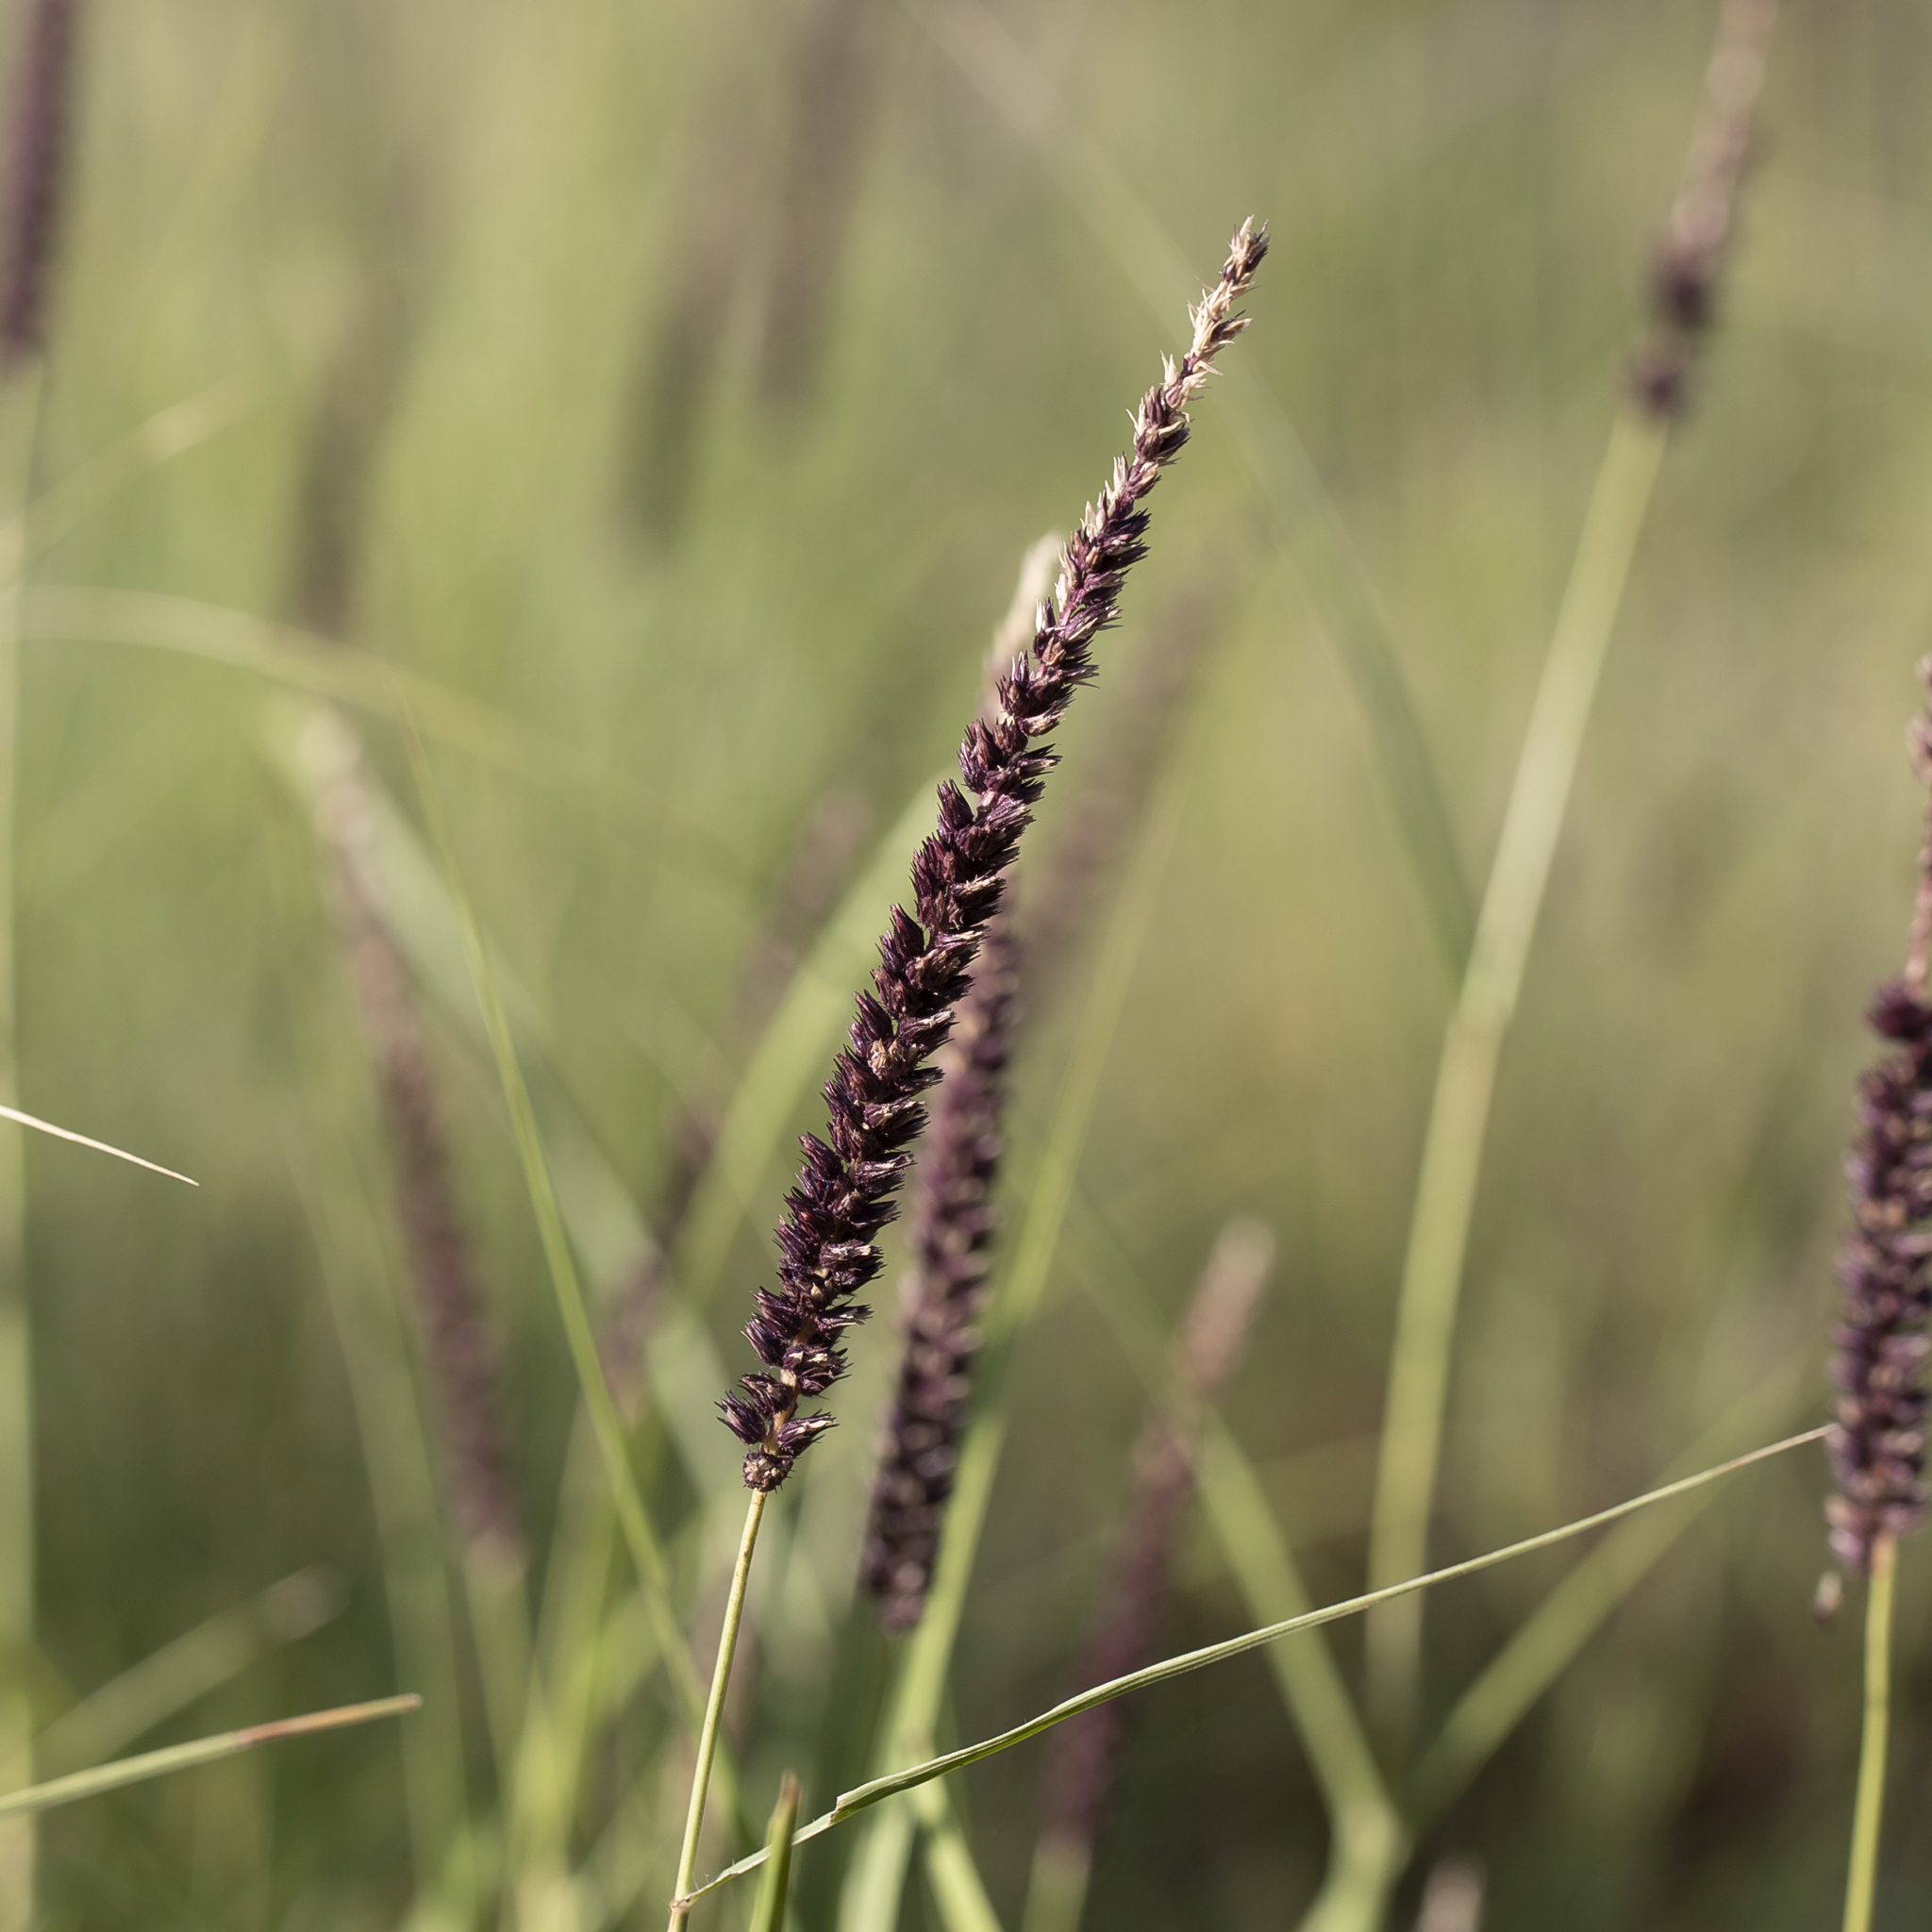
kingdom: Plantae
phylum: Tracheophyta
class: Liliopsida
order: Poales
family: Poaceae
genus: Cenchrus
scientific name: Cenchrus setigerus
